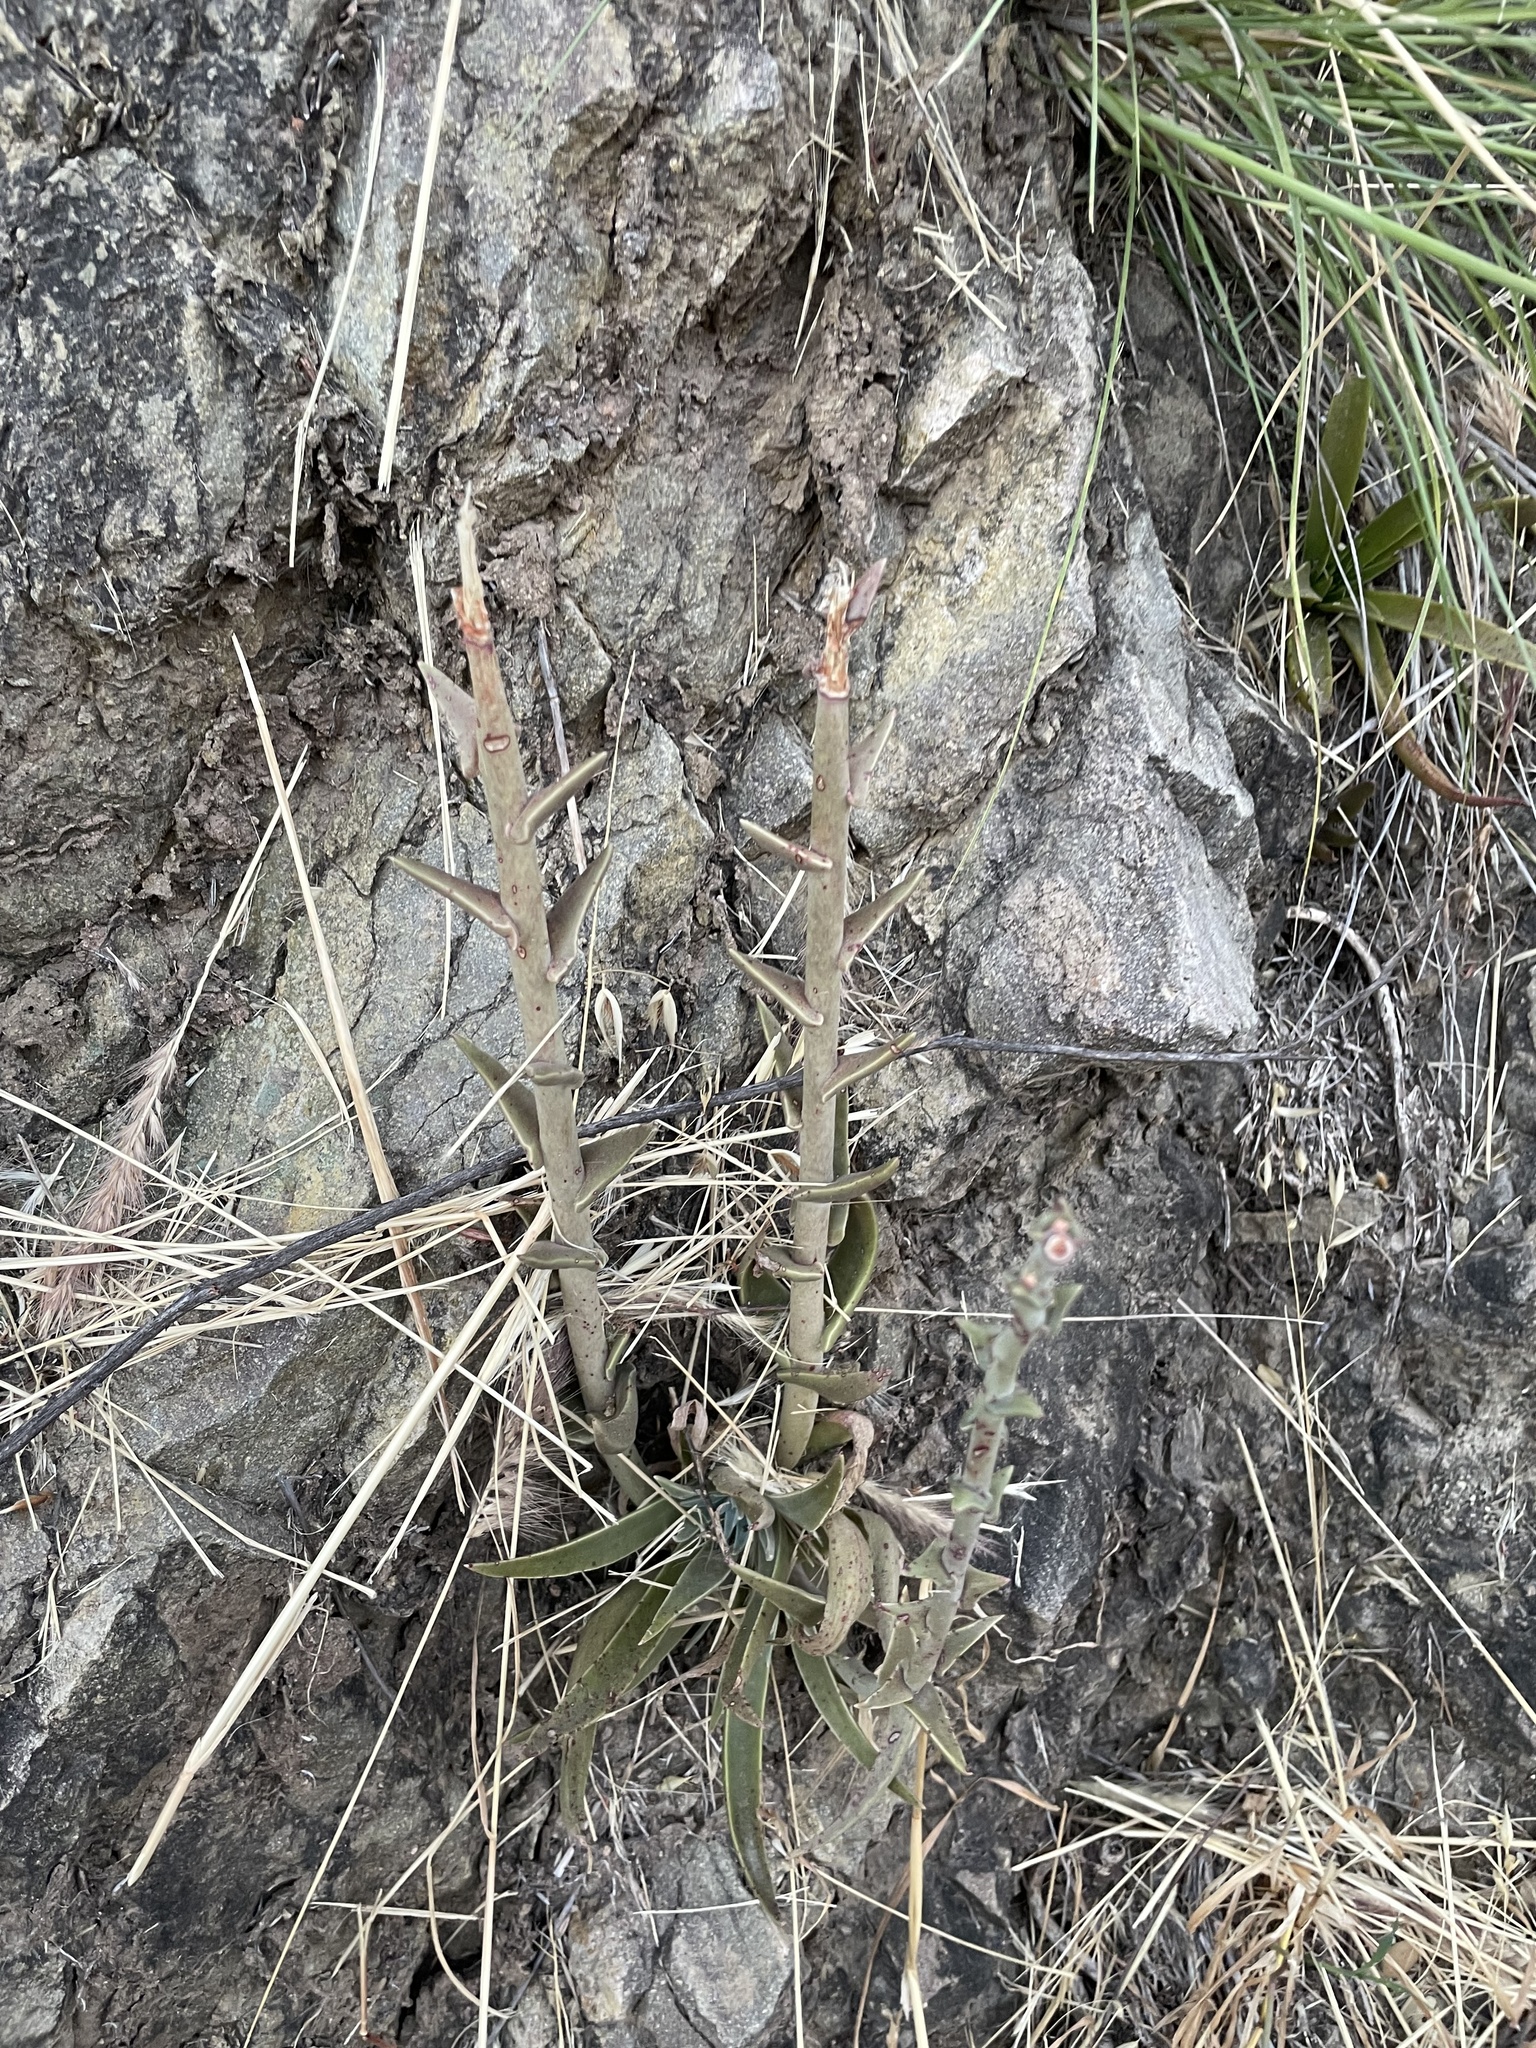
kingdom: Plantae
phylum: Tracheophyta
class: Magnoliopsida
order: Saxifragales
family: Crassulaceae
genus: Dudleya
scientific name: Dudleya lanceolata
